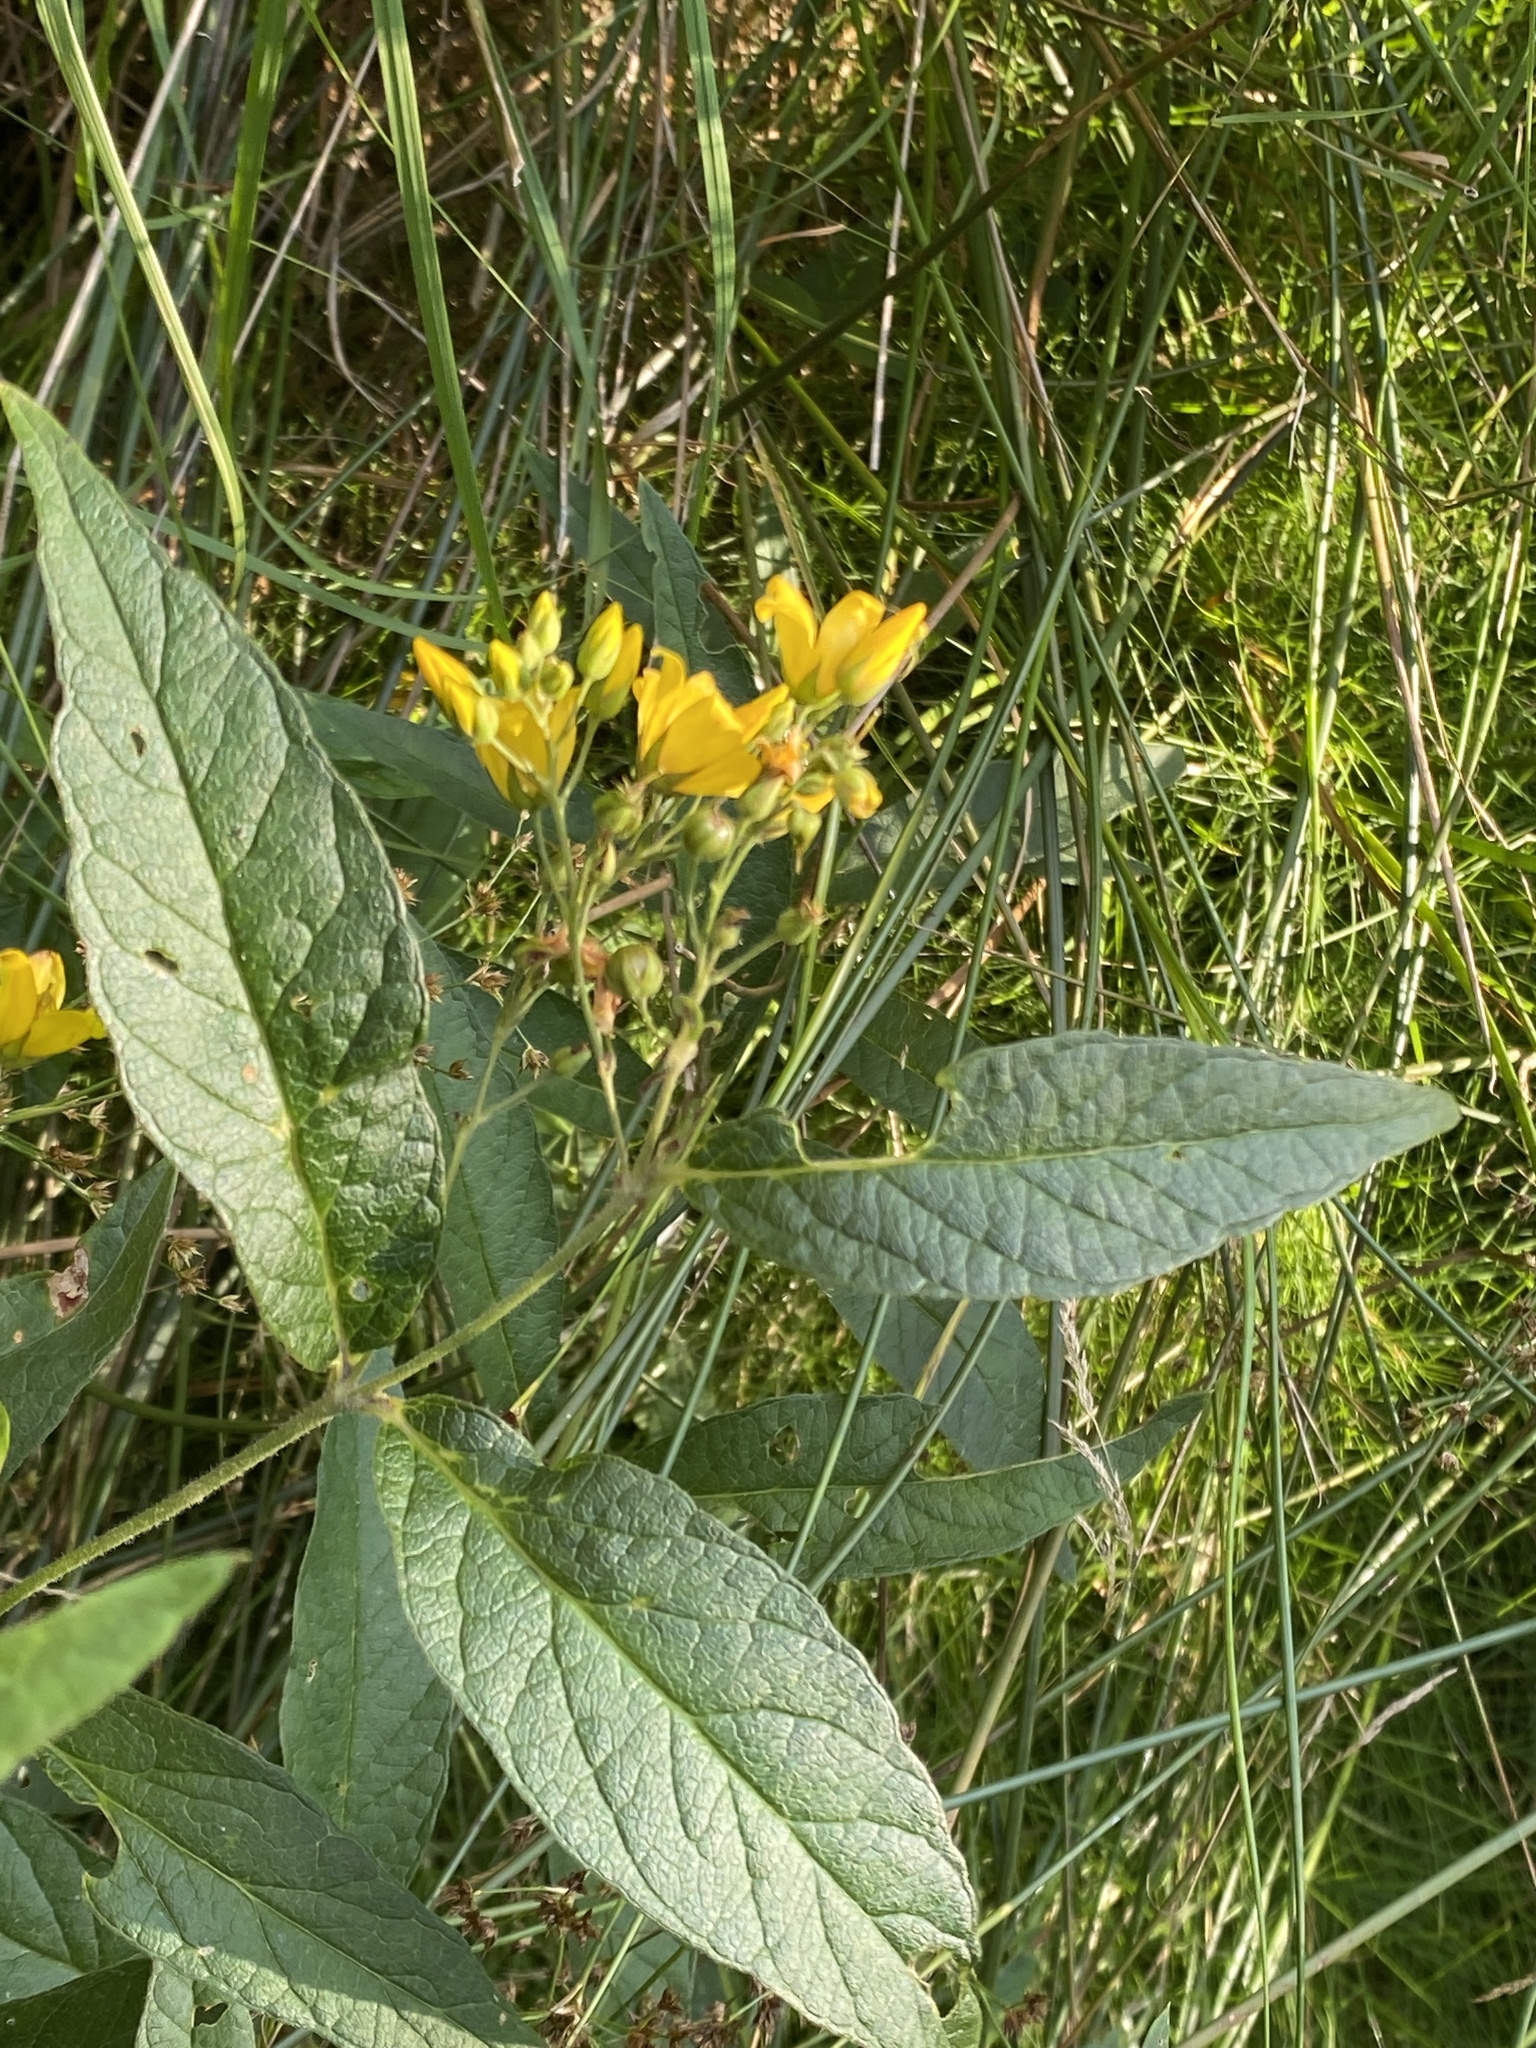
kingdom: Plantae
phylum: Tracheophyta
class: Magnoliopsida
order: Ericales
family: Primulaceae
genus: Lysimachia
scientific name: Lysimachia vulgaris
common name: Yellow loosestrife
